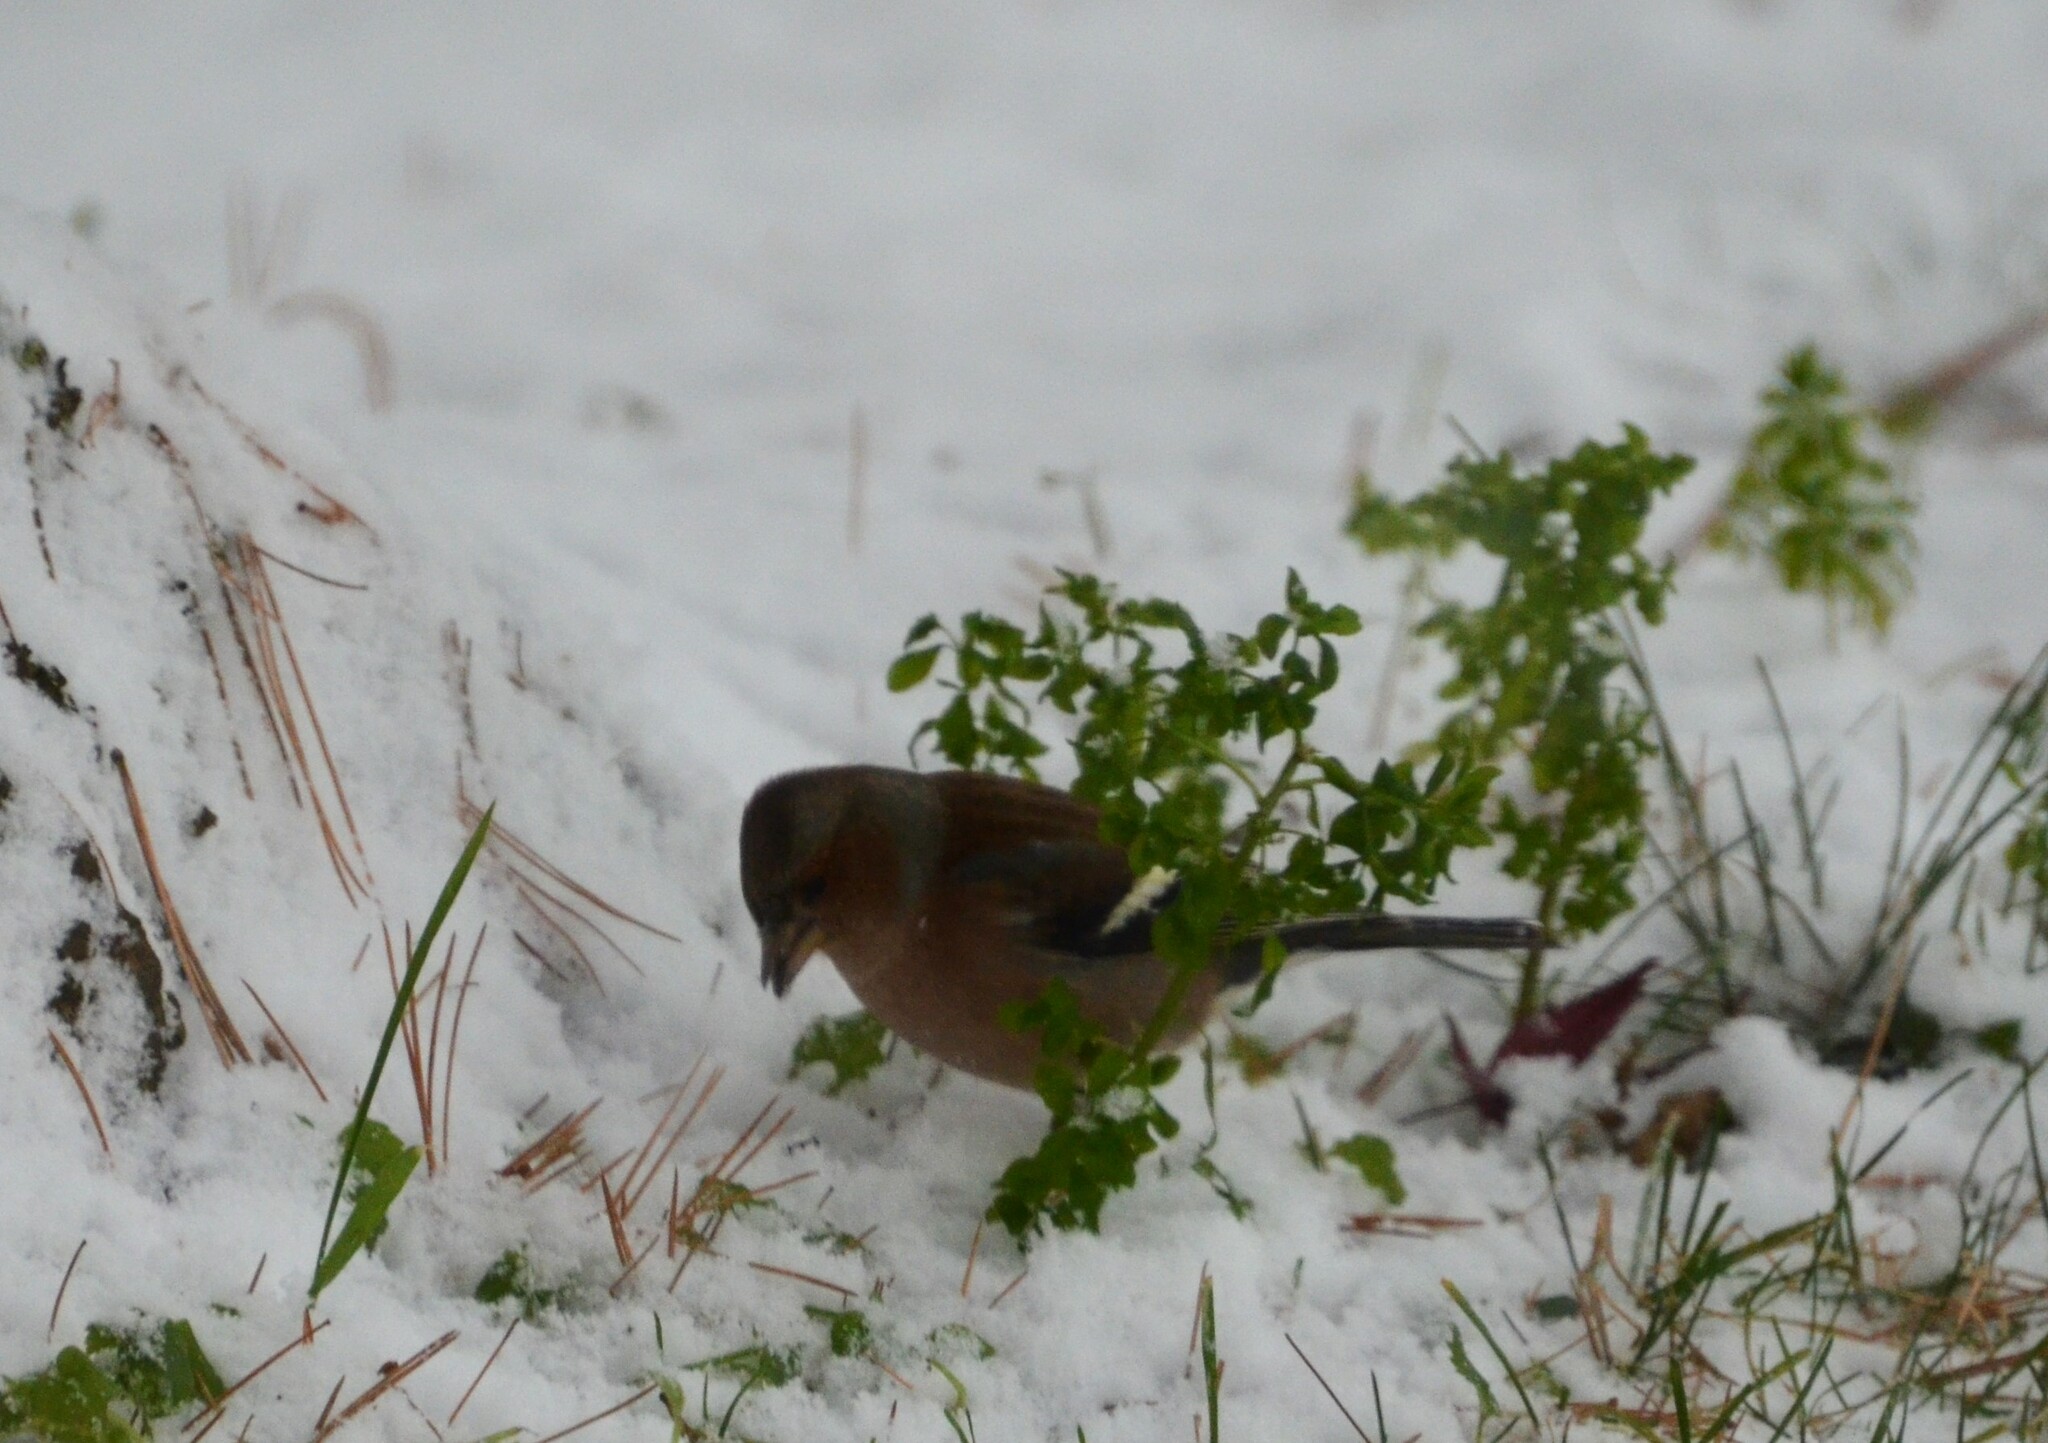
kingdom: Animalia
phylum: Chordata
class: Aves
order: Passeriformes
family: Fringillidae
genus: Fringilla
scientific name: Fringilla coelebs
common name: Common chaffinch
